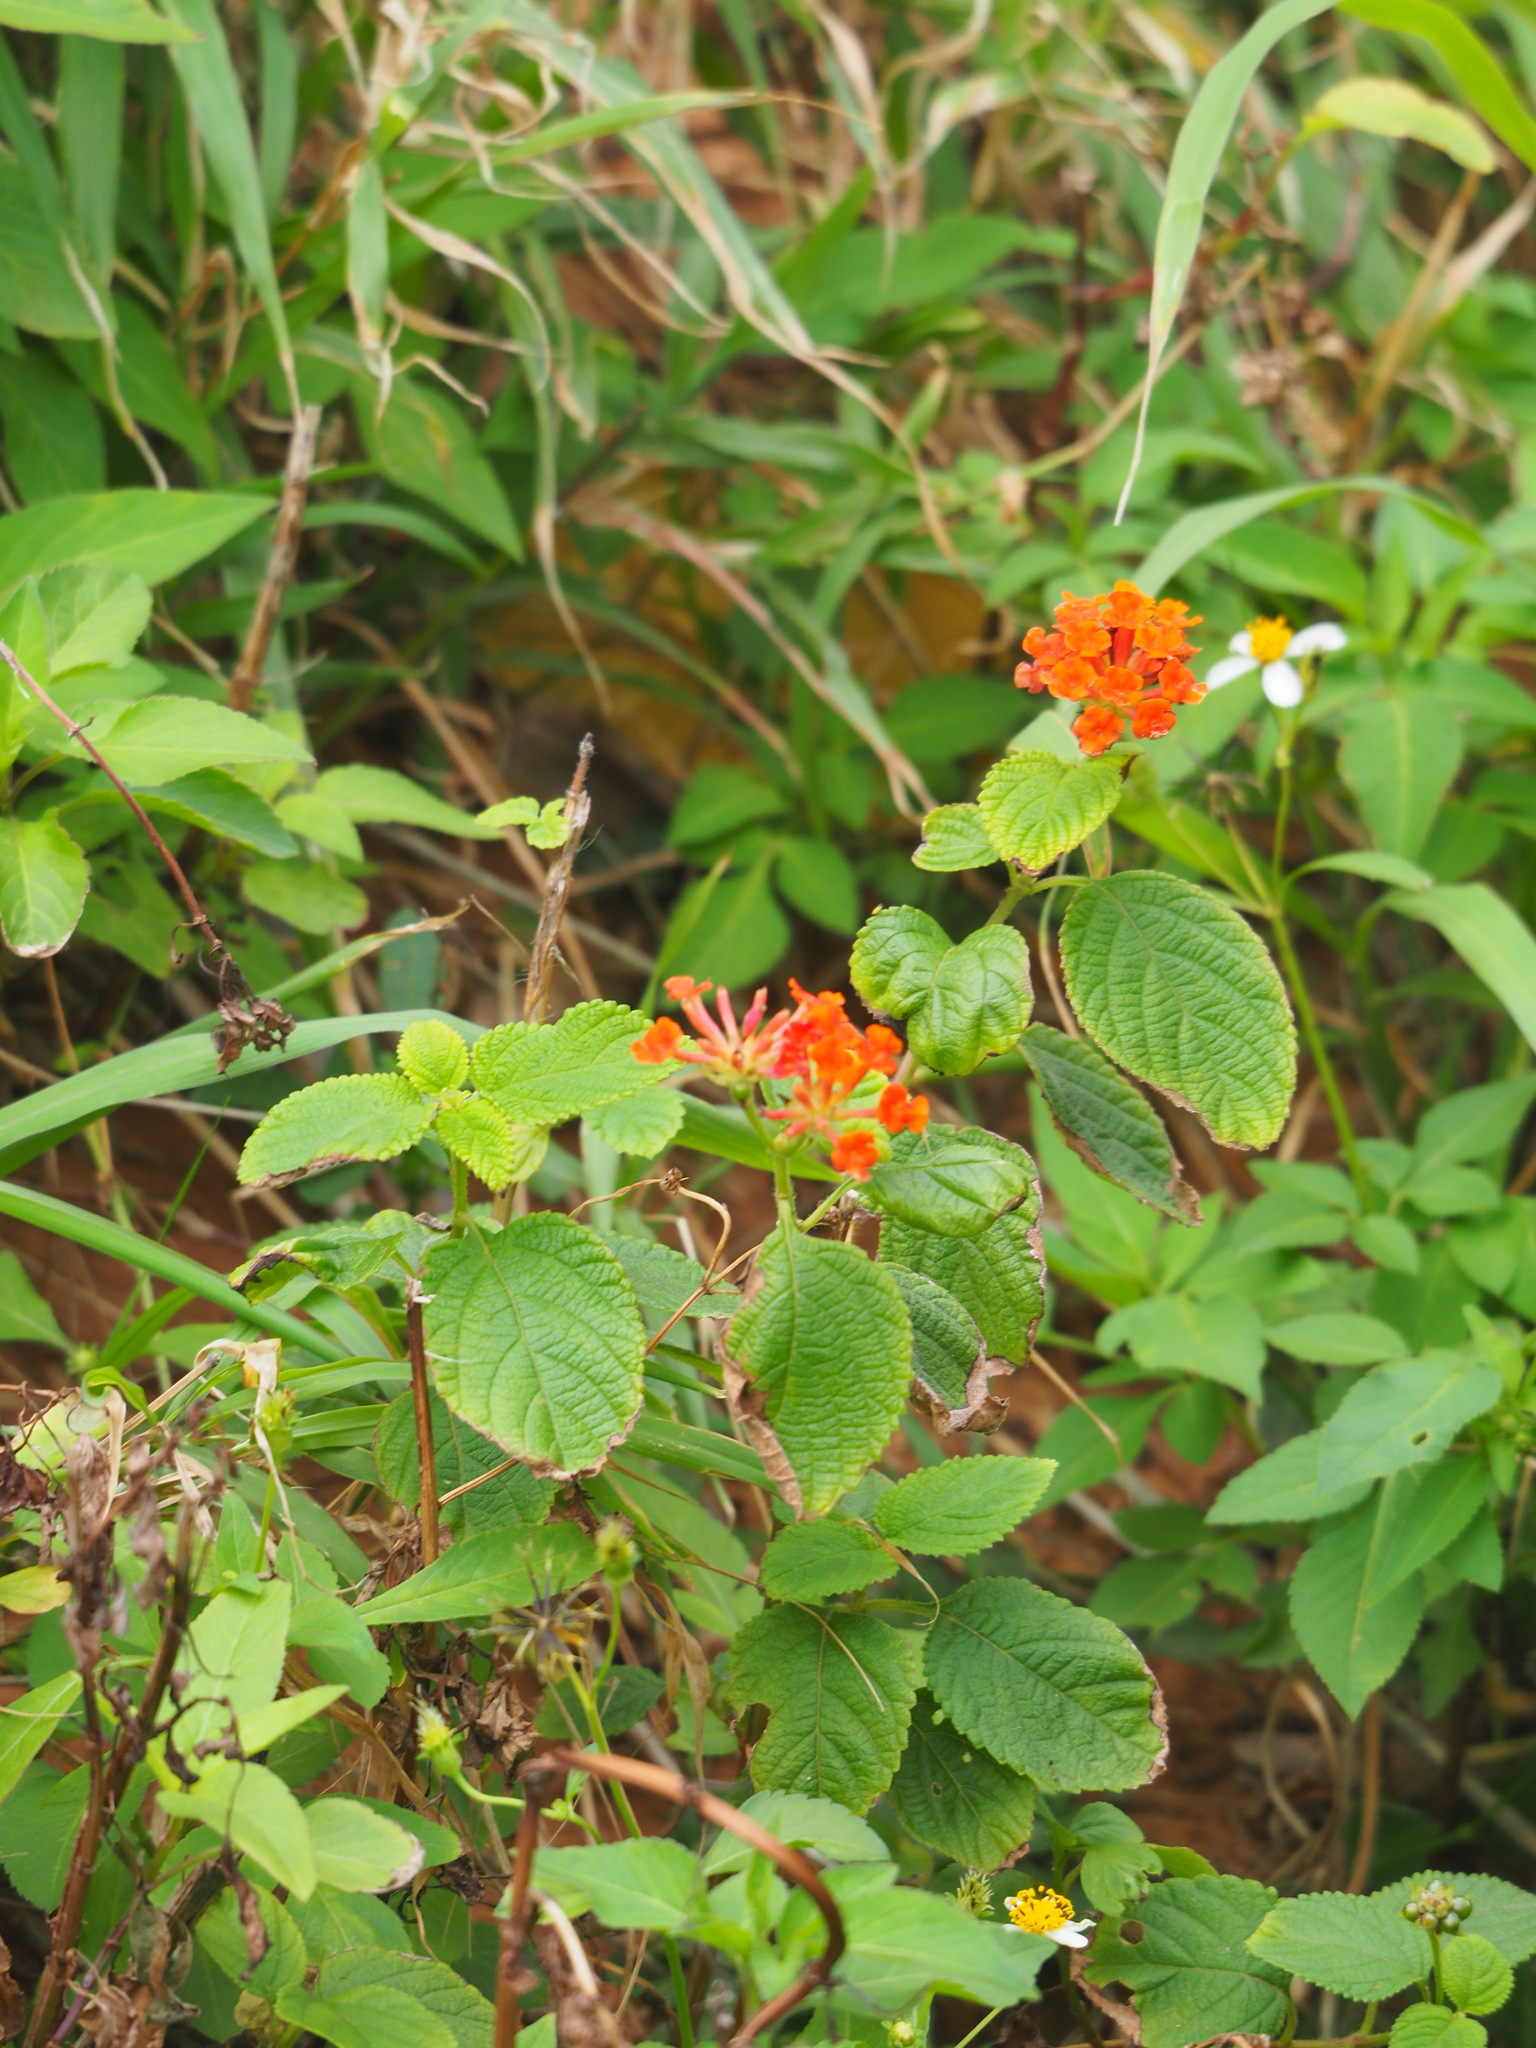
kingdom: Plantae
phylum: Tracheophyta
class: Magnoliopsida
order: Lamiales
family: Verbenaceae
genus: Lantana
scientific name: Lantana camara
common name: Lantana
